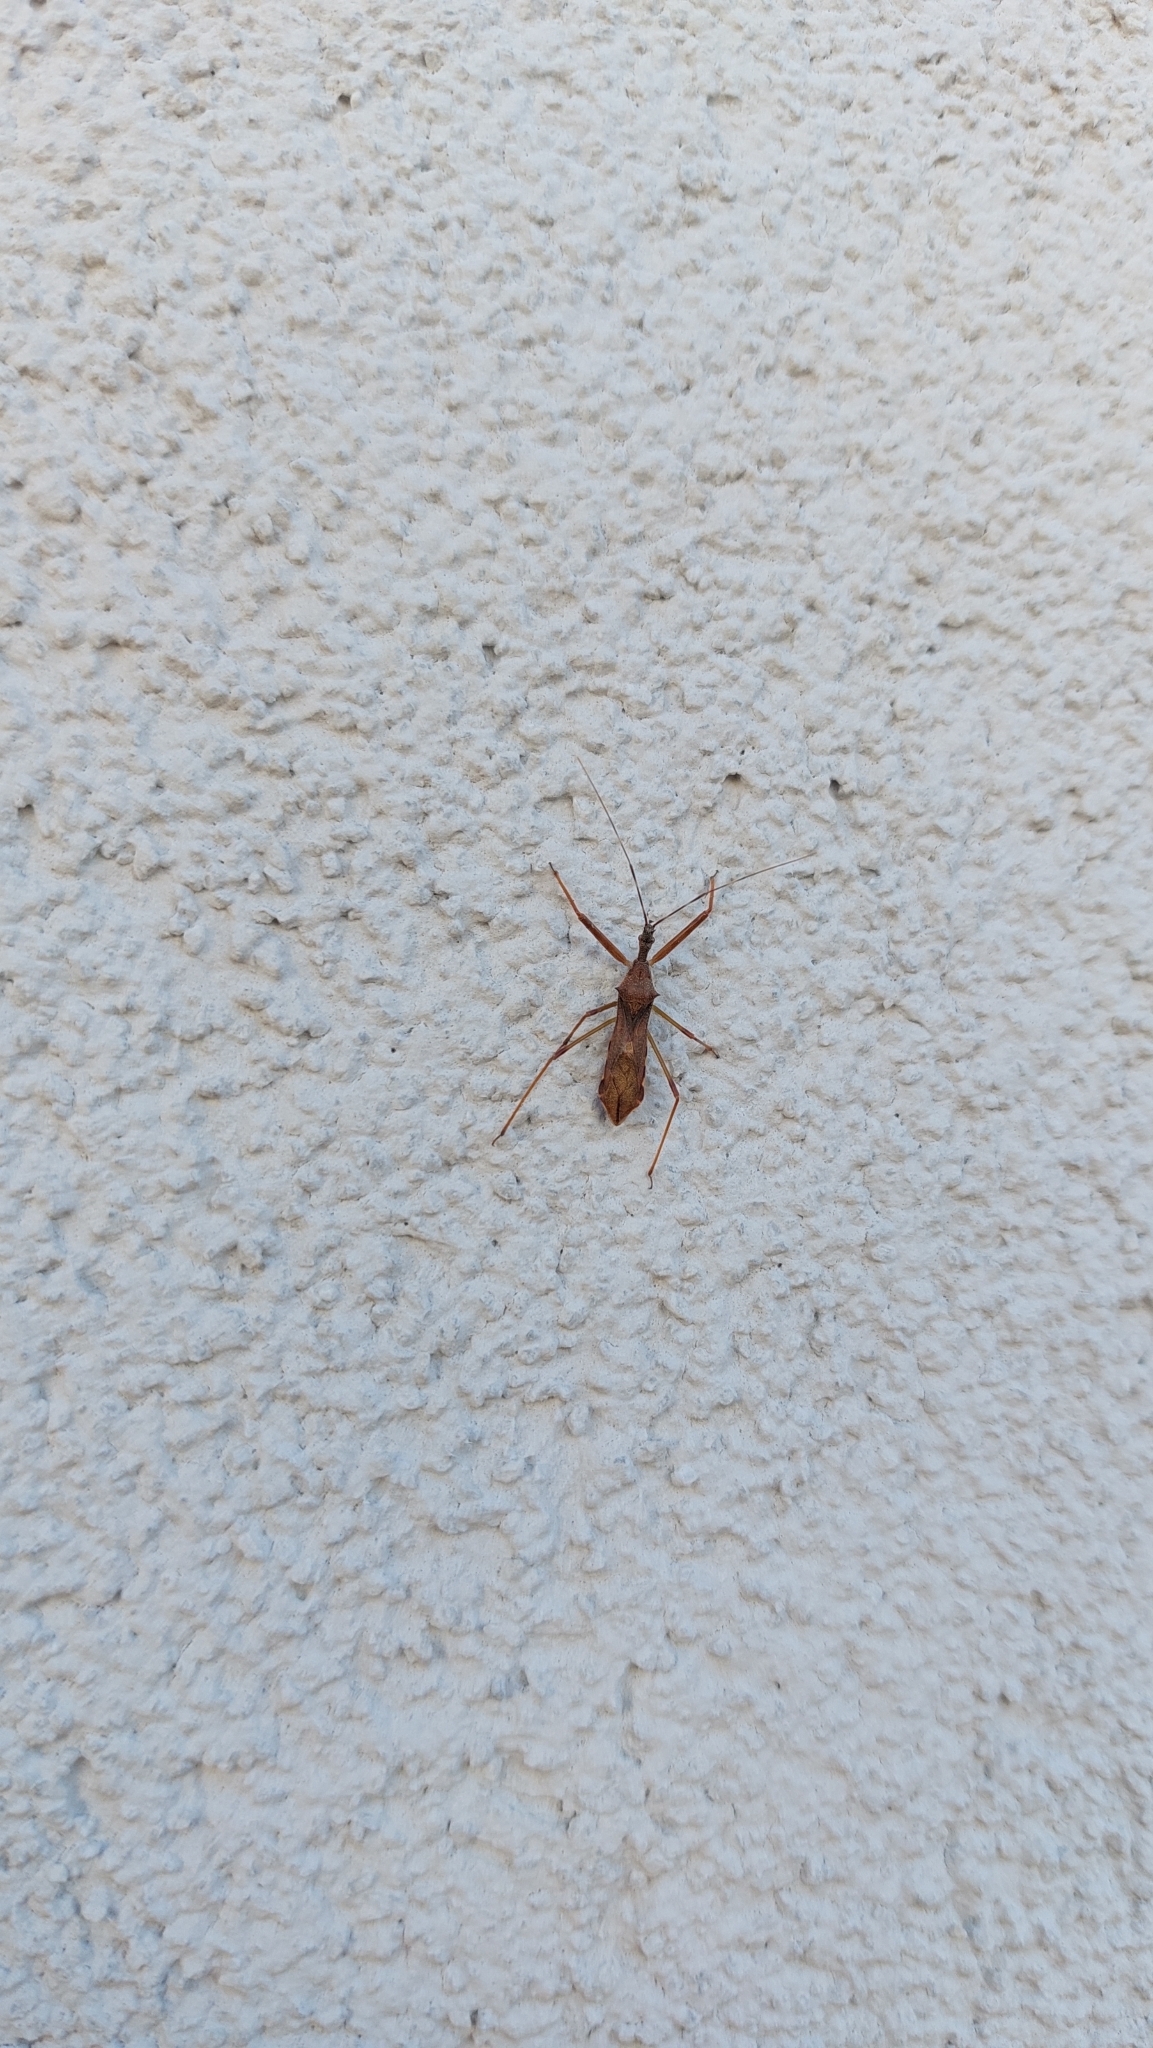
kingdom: Animalia
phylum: Arthropoda
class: Insecta
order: Hemiptera
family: Reduviidae
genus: Nagusta
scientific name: Nagusta goedelii
